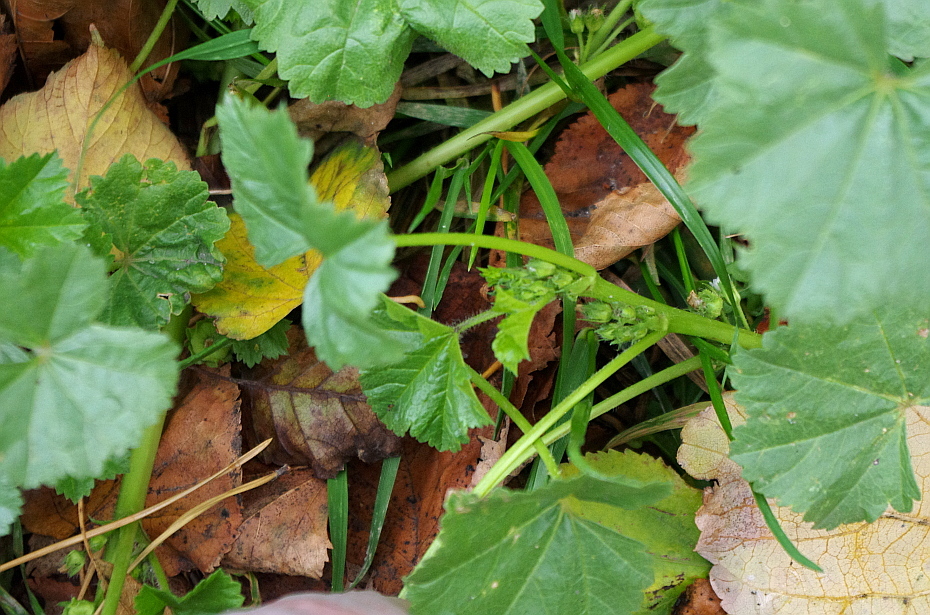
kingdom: Plantae
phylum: Tracheophyta
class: Magnoliopsida
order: Malvales
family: Malvaceae
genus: Malva
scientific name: Malva pusilla
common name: Small mallow
